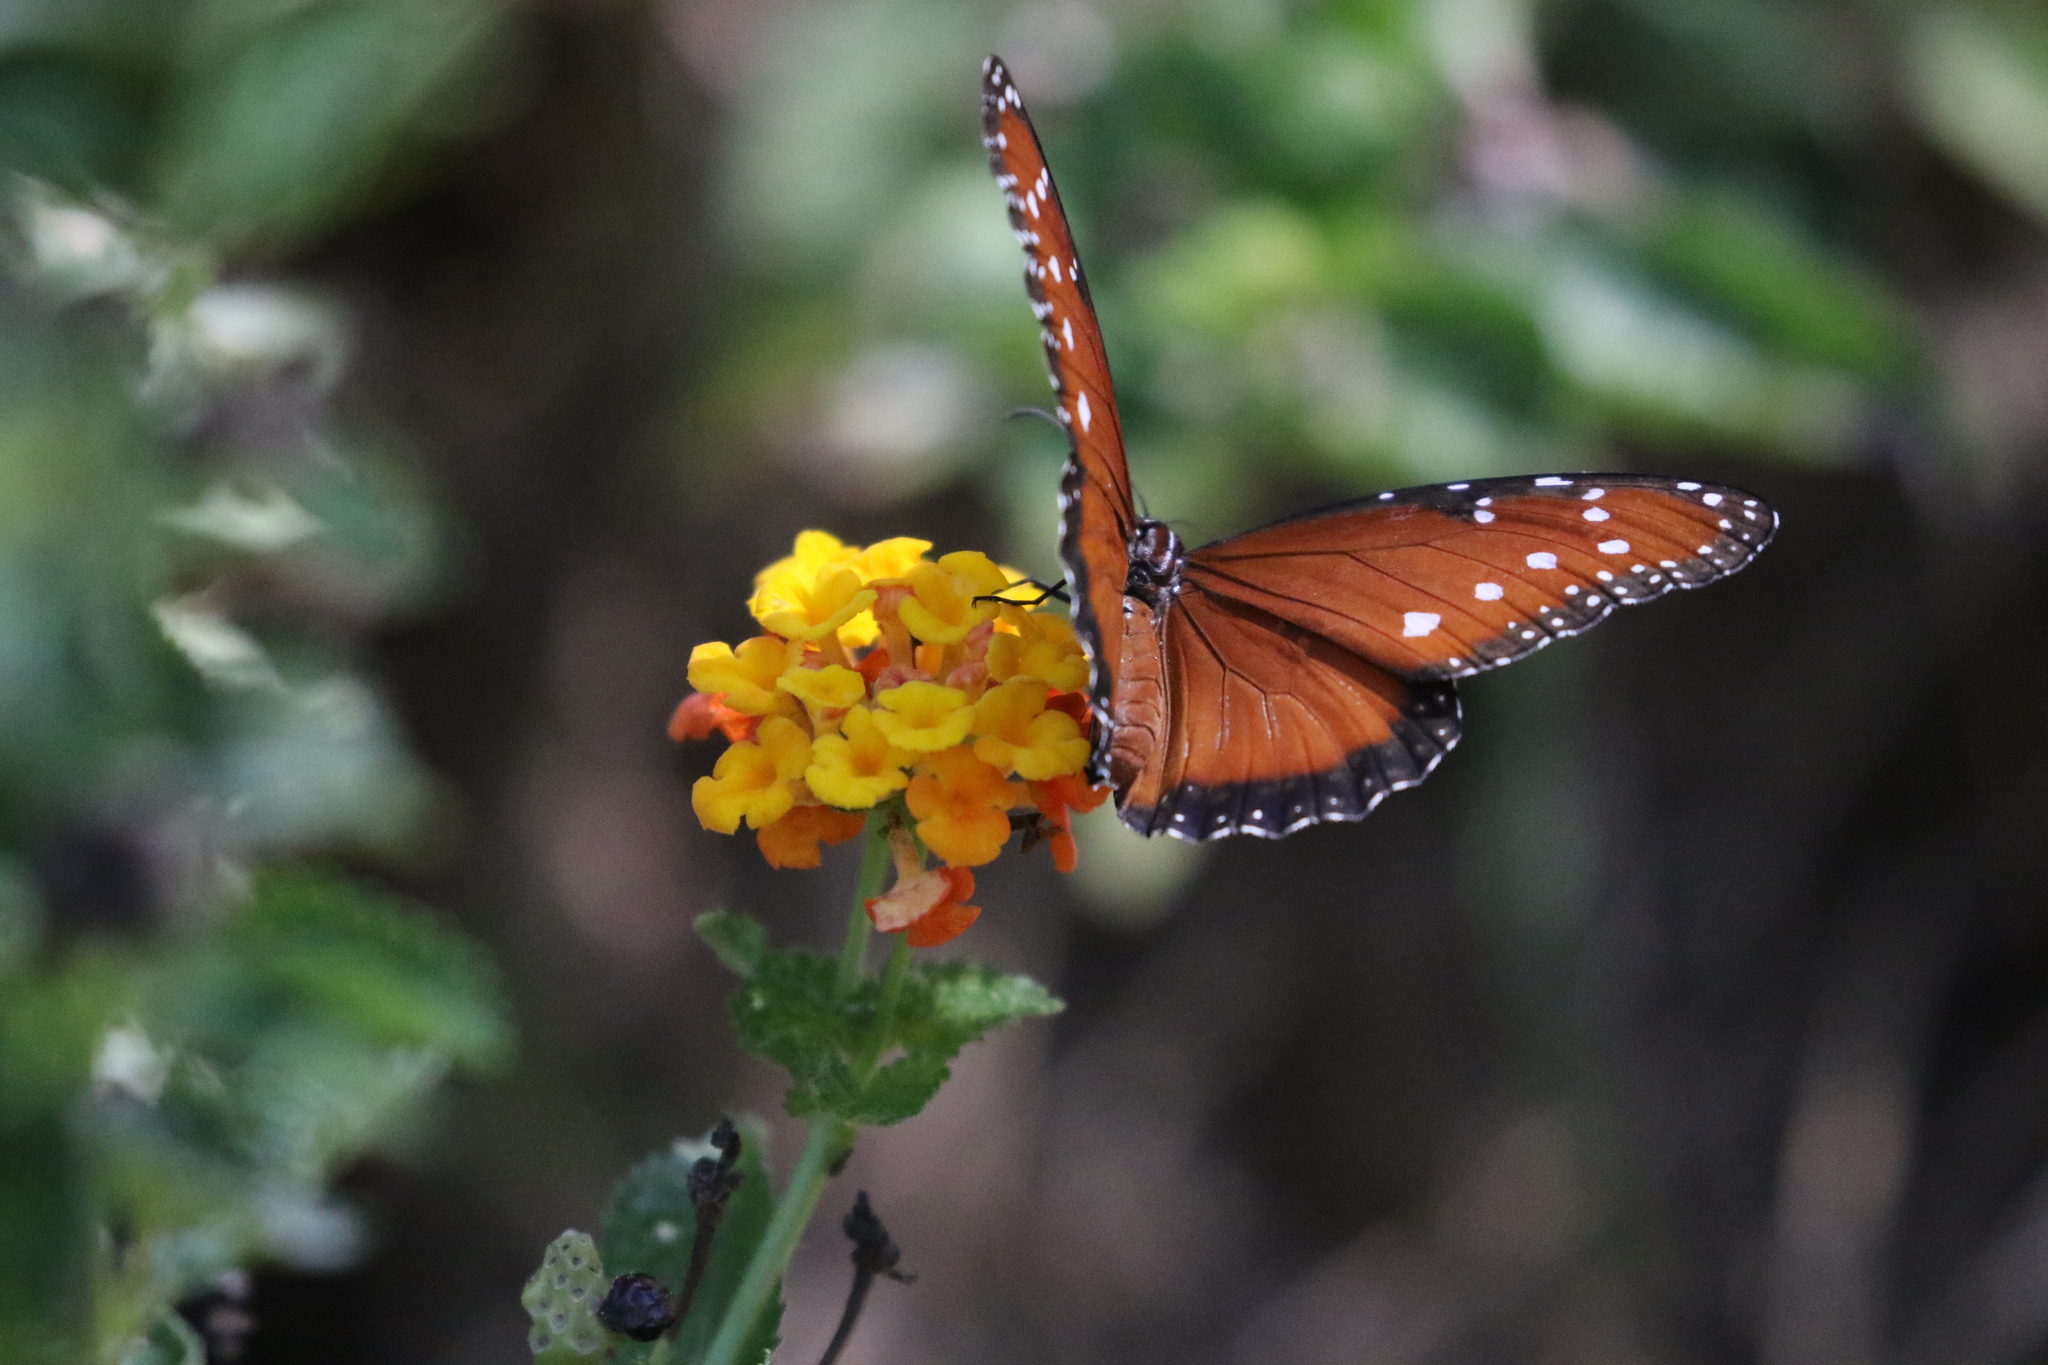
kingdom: Animalia
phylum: Arthropoda
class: Insecta
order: Lepidoptera
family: Nymphalidae
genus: Danaus
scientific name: Danaus gilippus
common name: Queen
